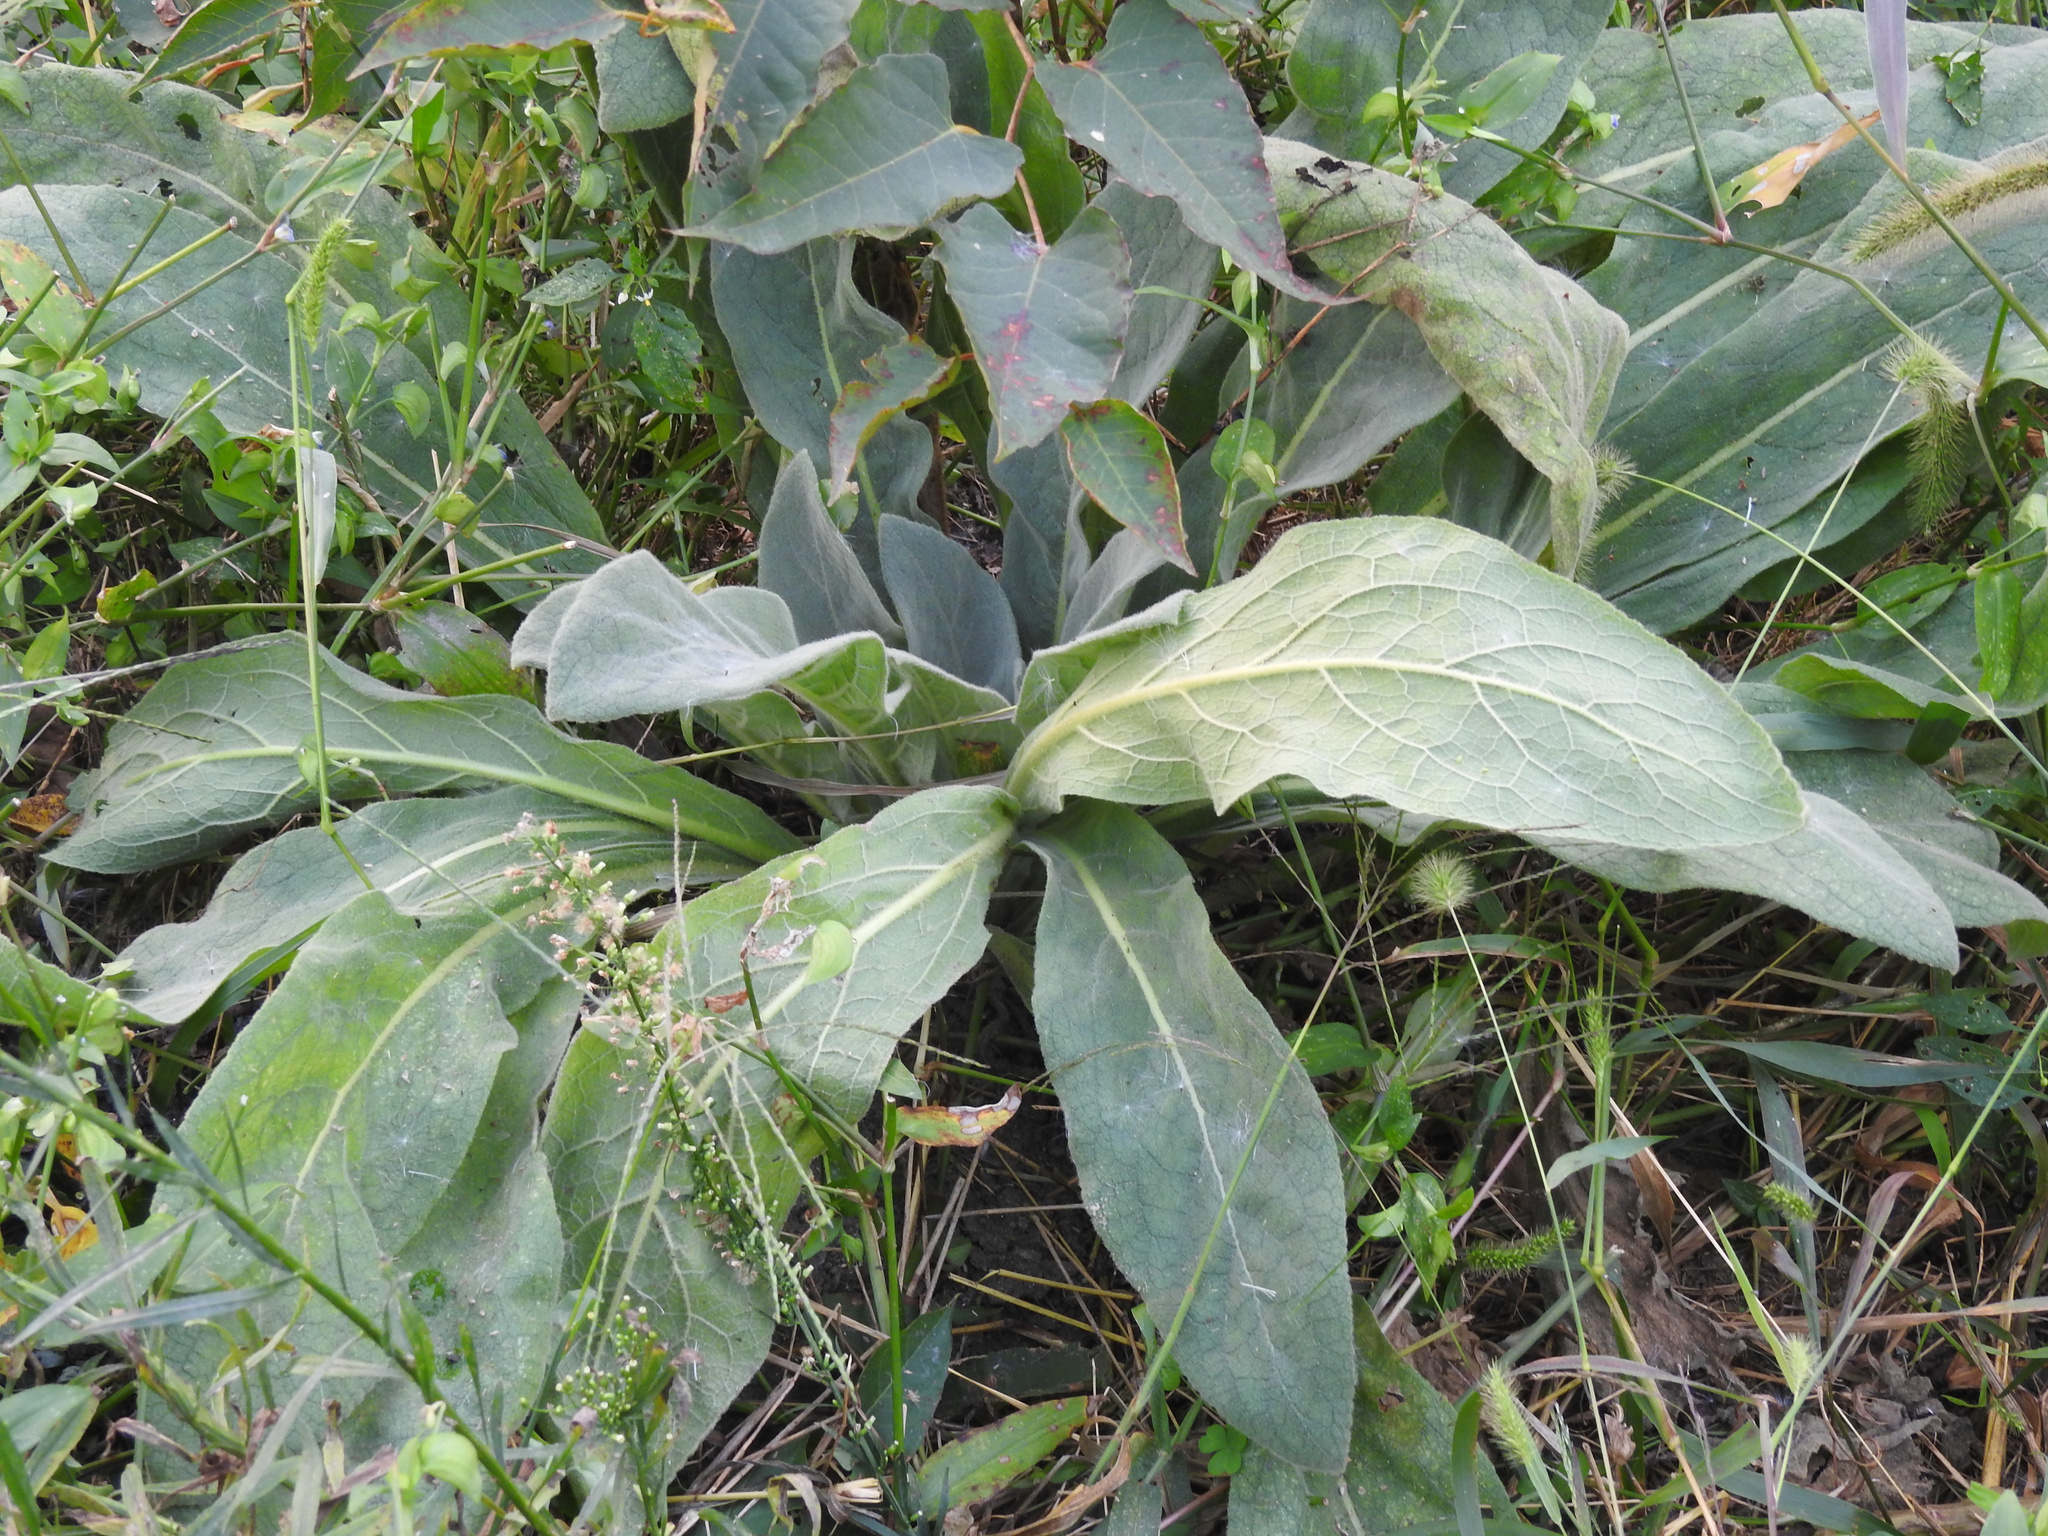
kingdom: Plantae
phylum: Tracheophyta
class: Magnoliopsida
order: Lamiales
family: Scrophulariaceae
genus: Verbascum
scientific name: Verbascum thapsus
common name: Common mullein
